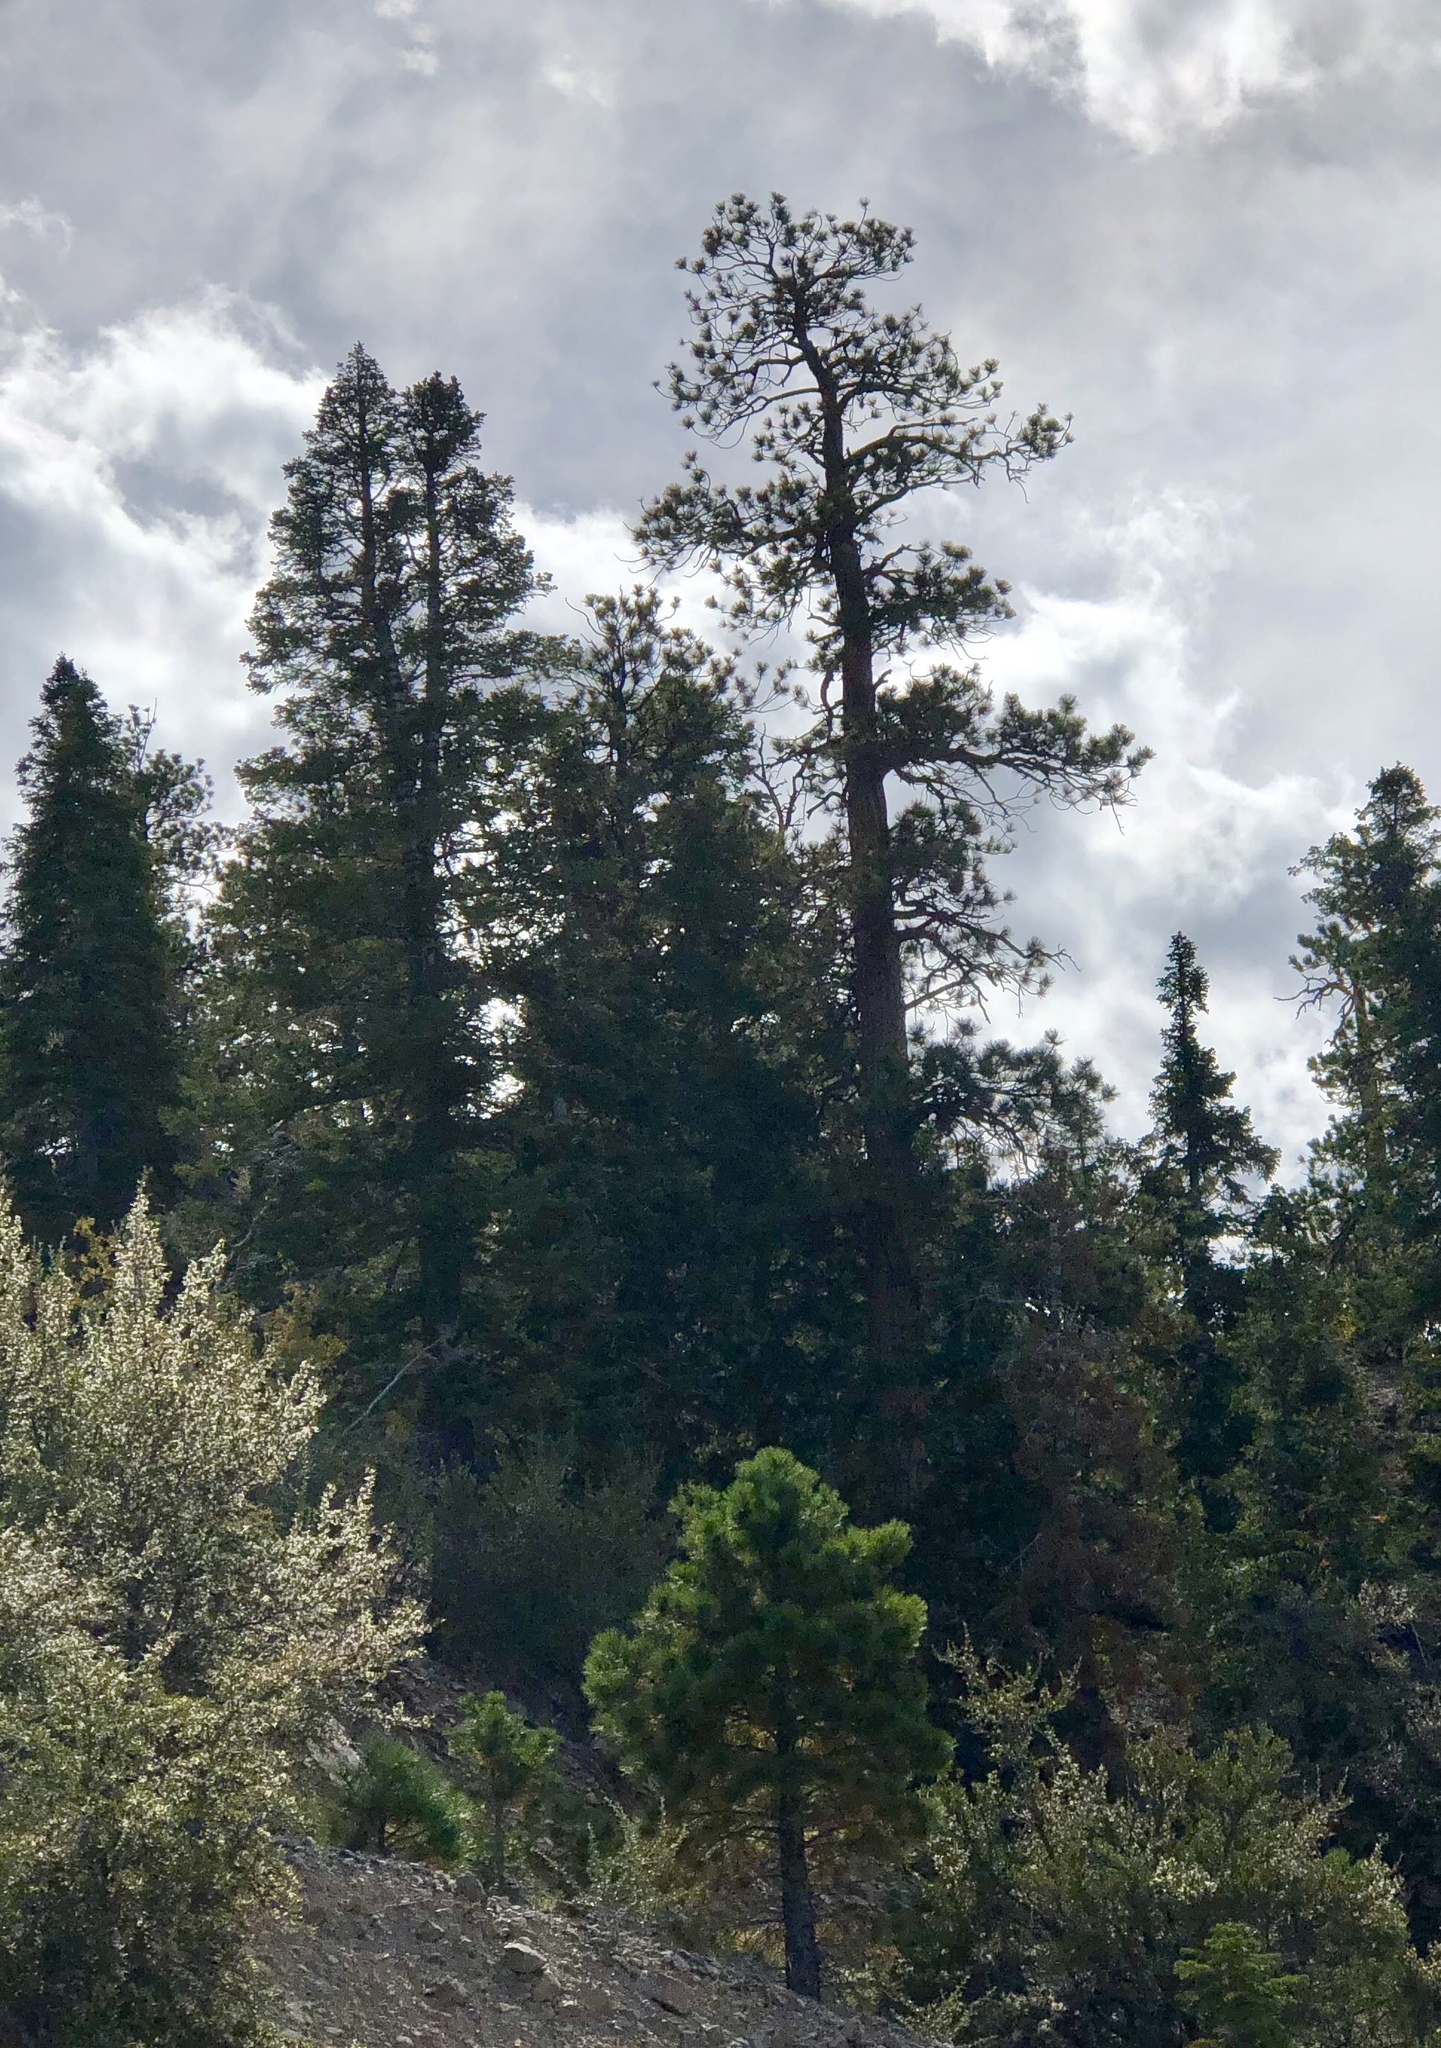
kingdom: Plantae
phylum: Tracheophyta
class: Pinopsida
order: Pinales
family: Pinaceae
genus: Pinus
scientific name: Pinus ponderosa
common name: Western yellow-pine
